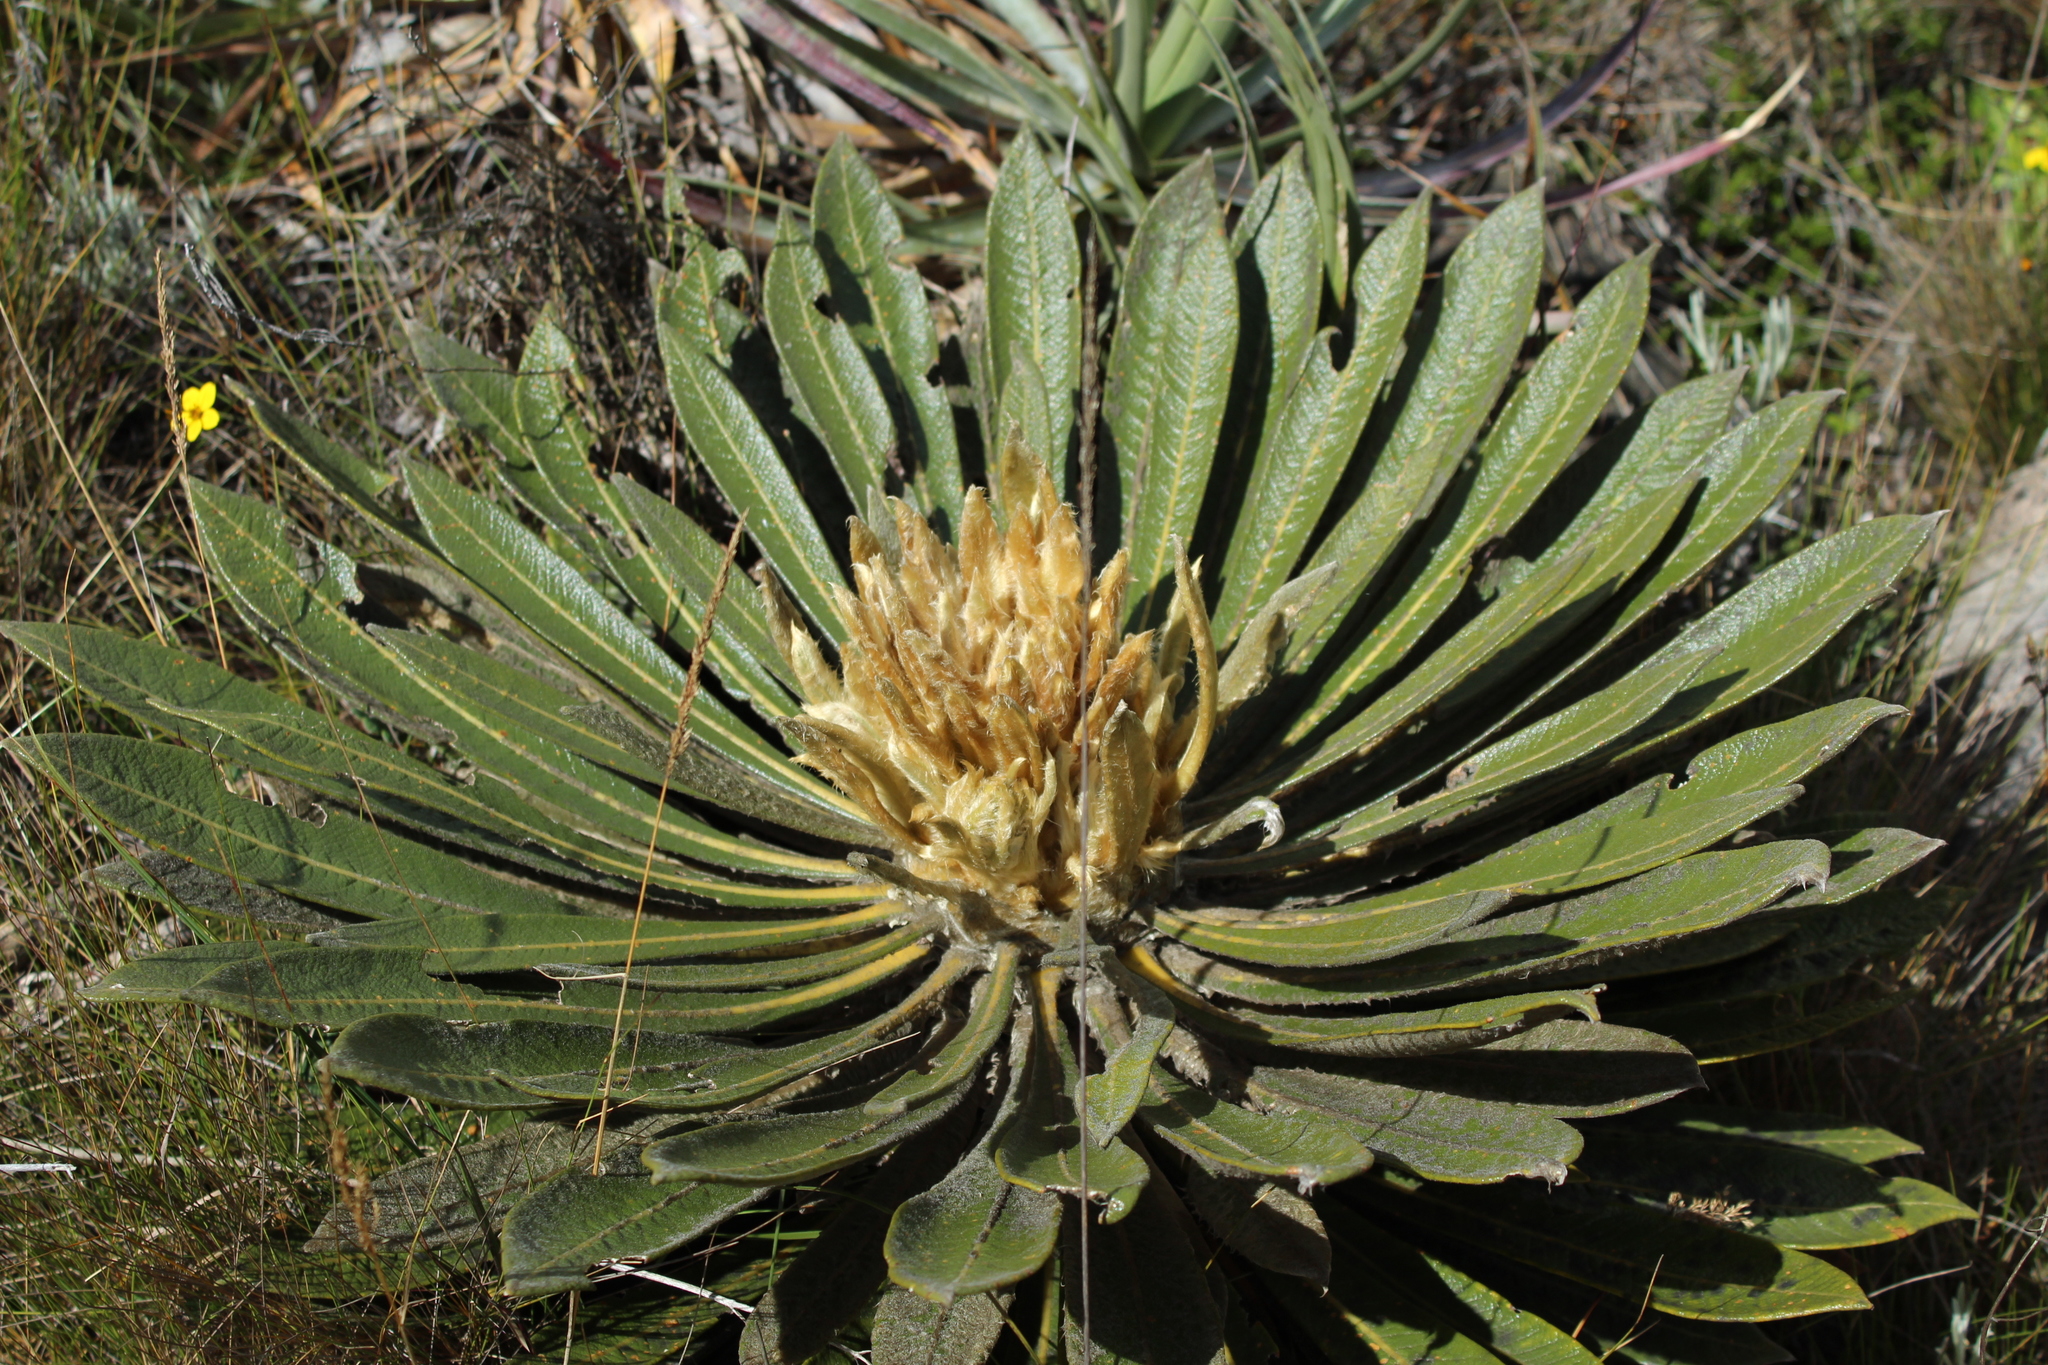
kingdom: Plantae
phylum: Tracheophyta
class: Magnoliopsida
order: Asterales
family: Asteraceae
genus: Espeletia
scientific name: Espeletia guacharaca
